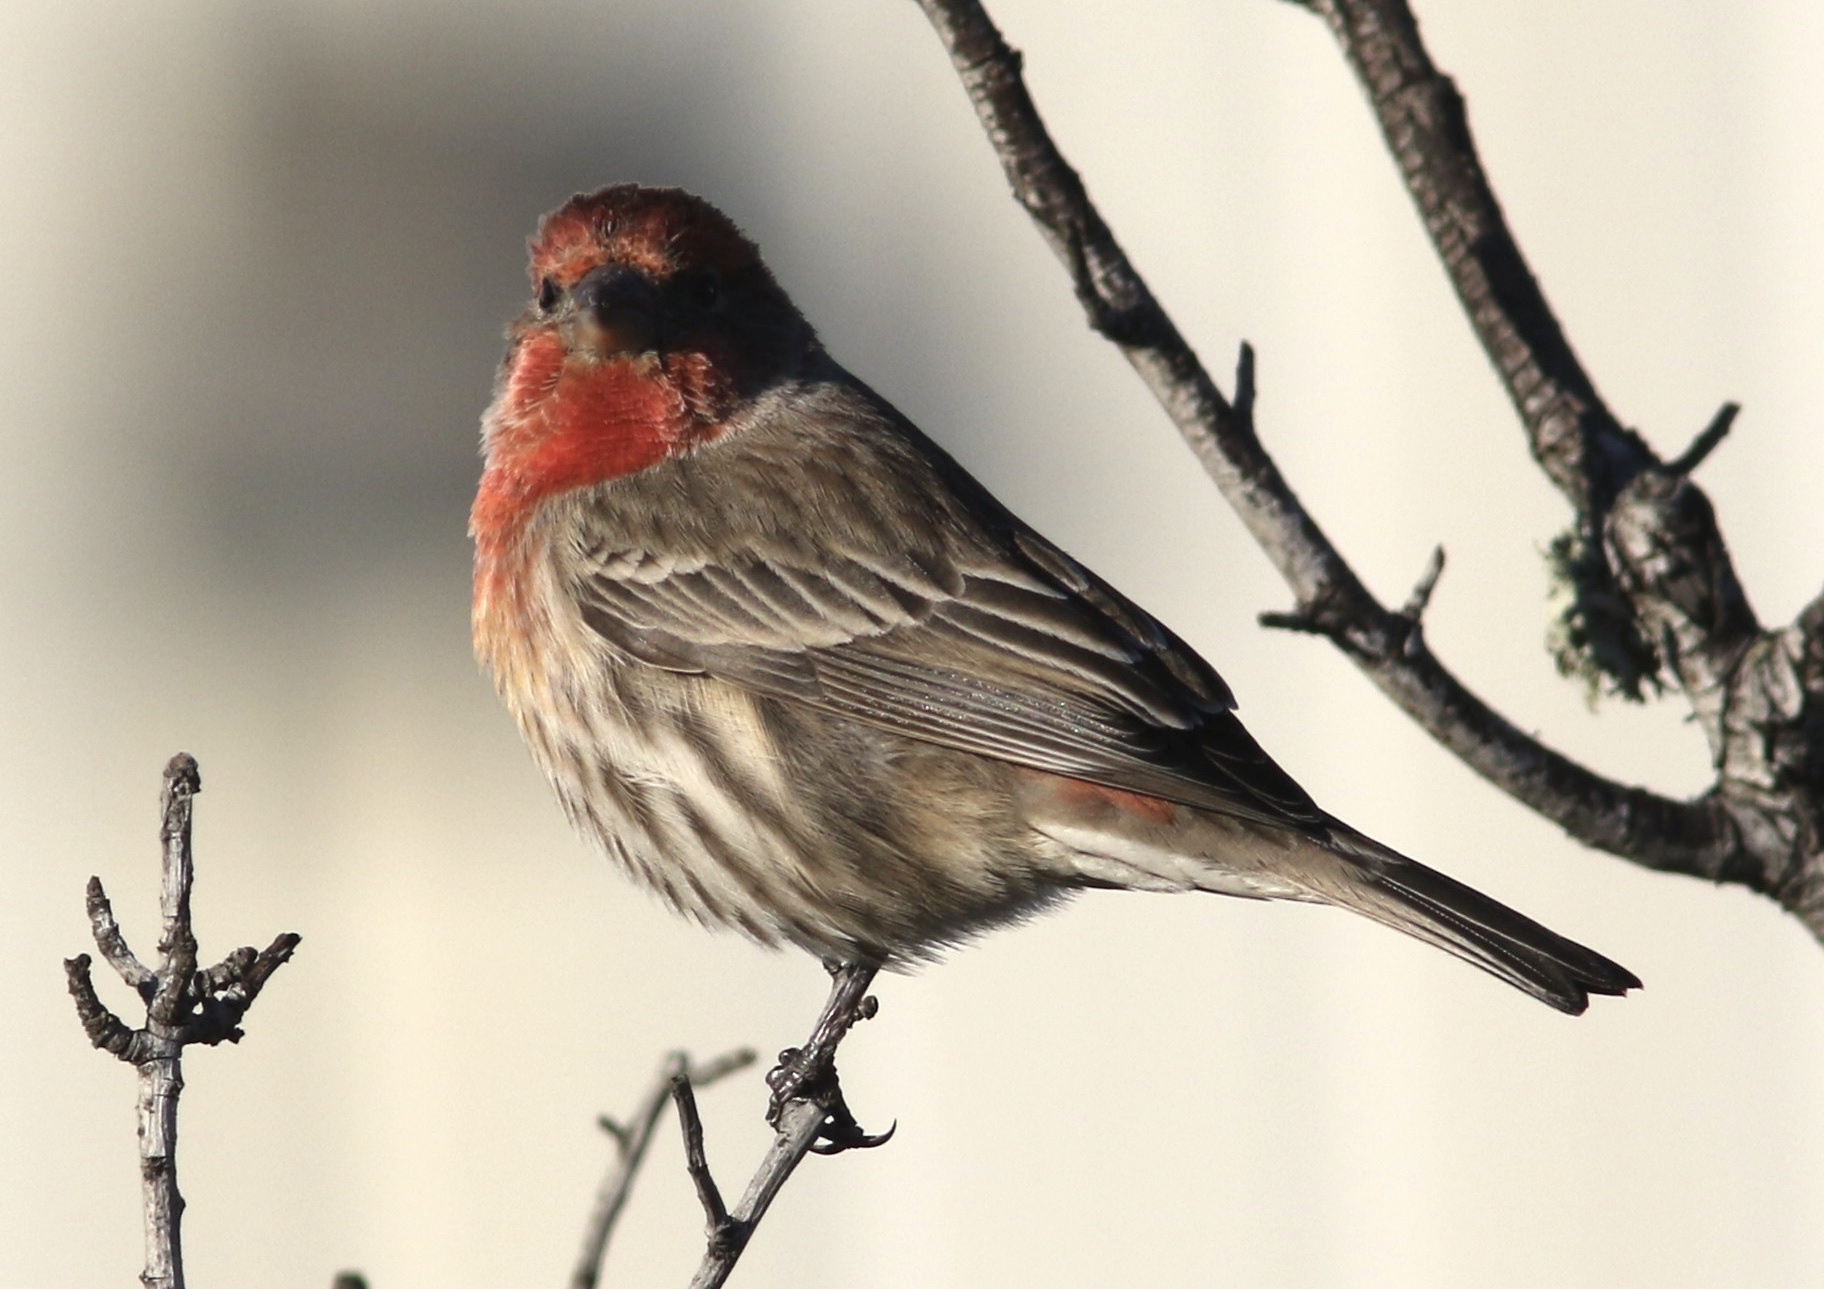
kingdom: Animalia
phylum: Chordata
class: Aves
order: Passeriformes
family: Fringillidae
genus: Haemorhous
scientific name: Haemorhous mexicanus
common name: House finch
